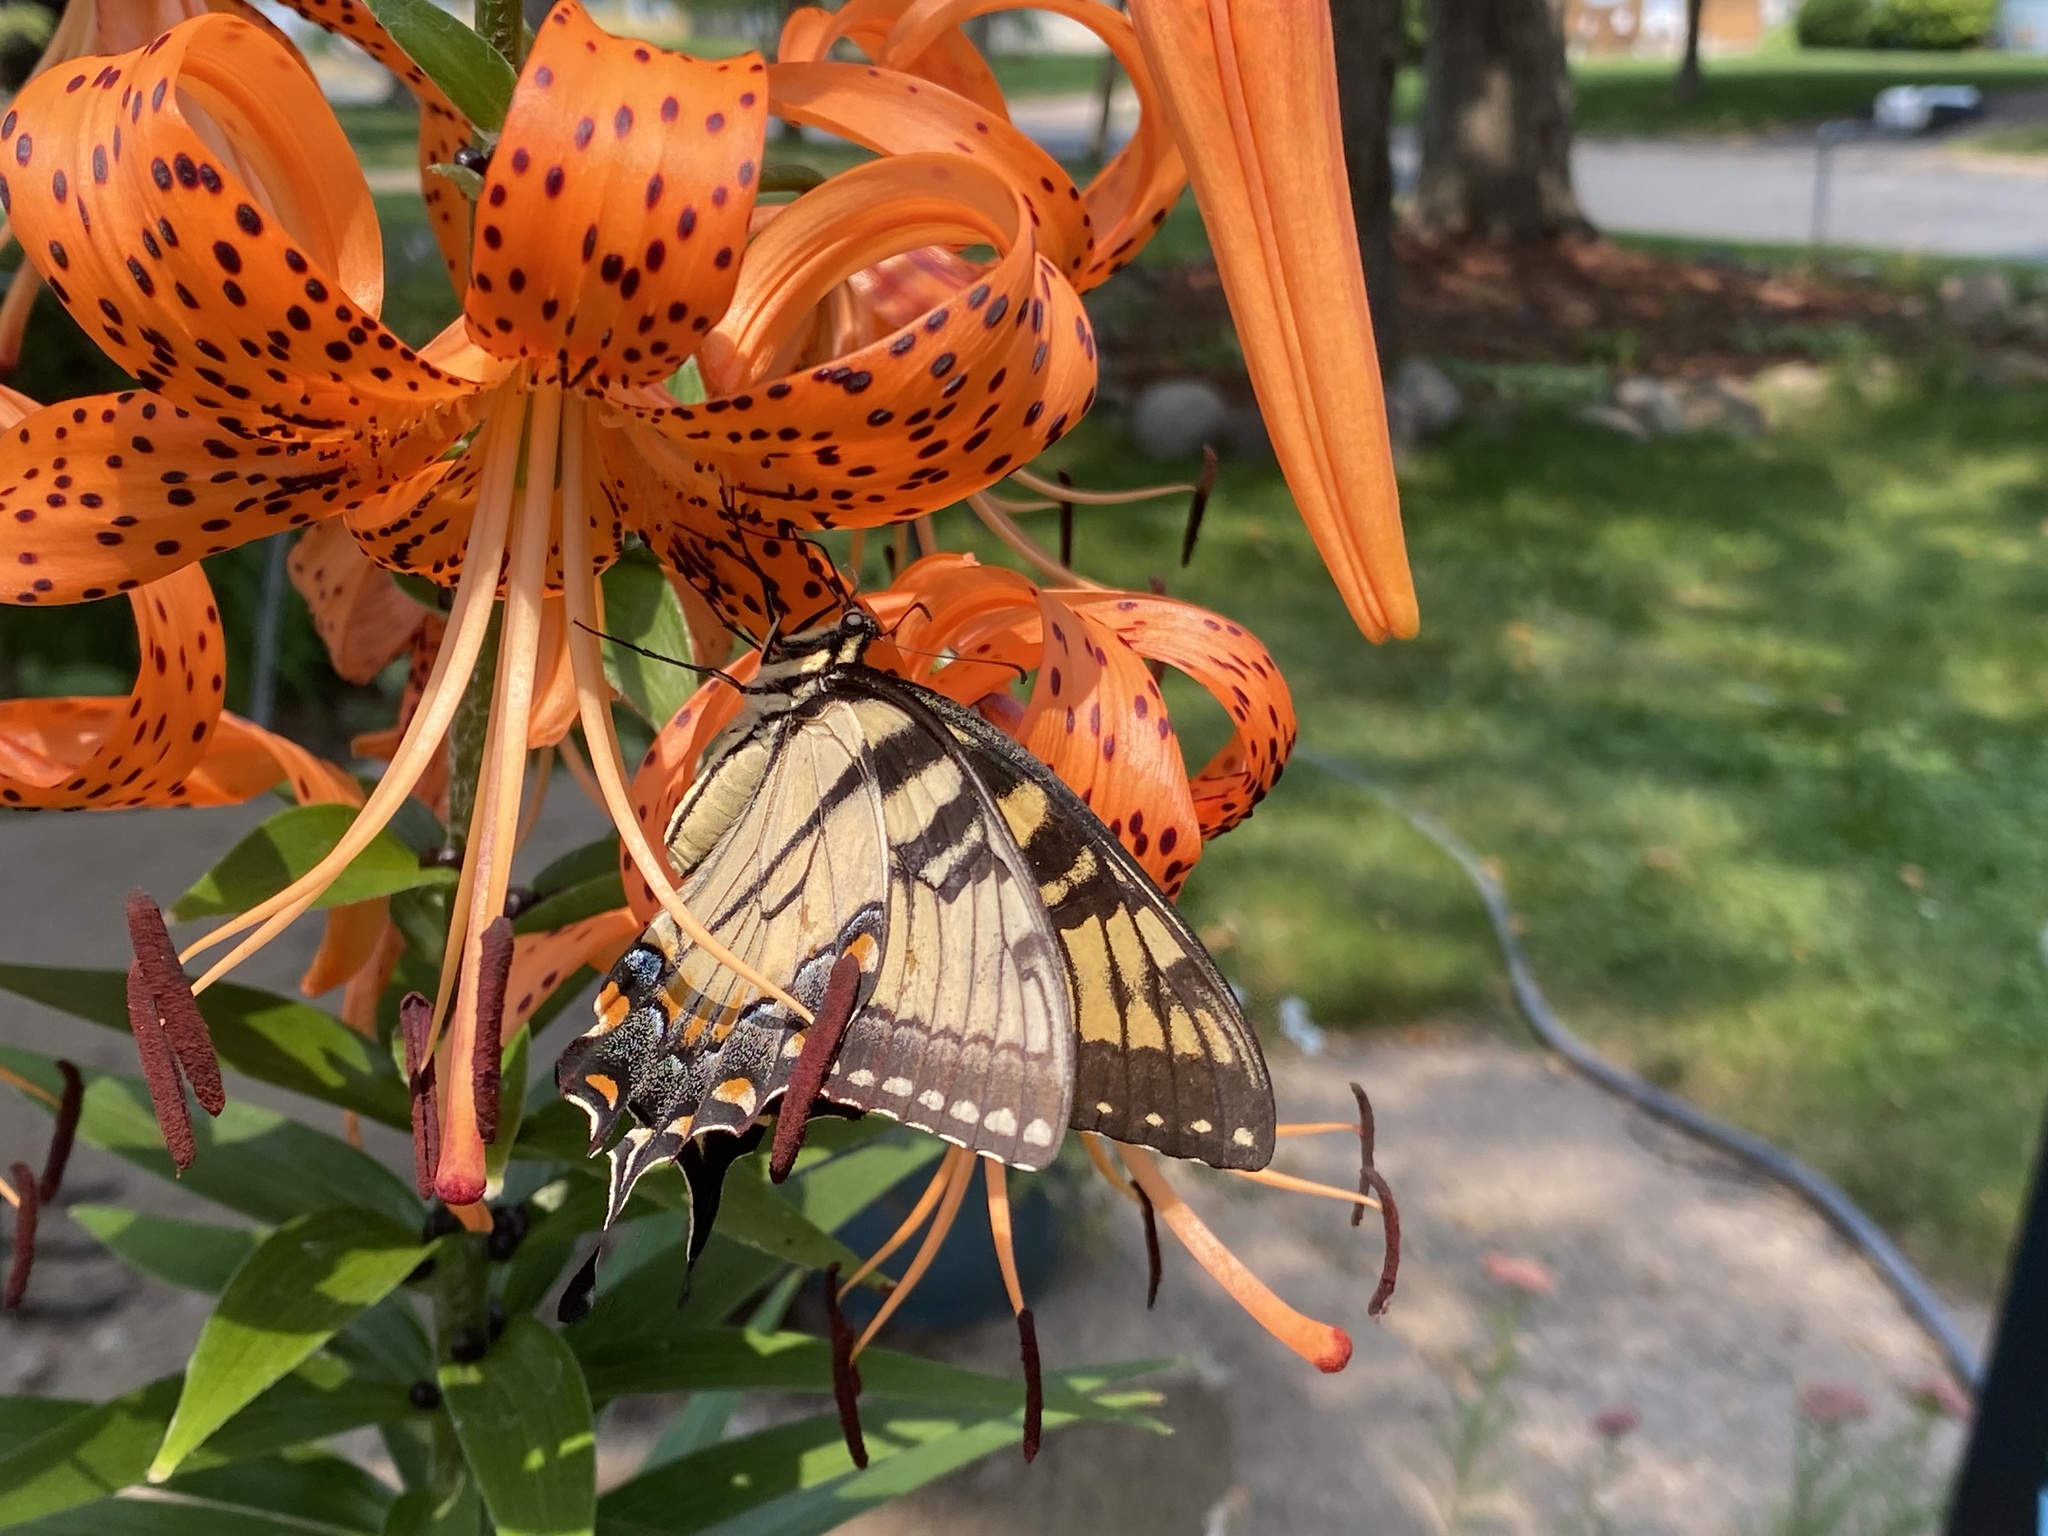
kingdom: Animalia
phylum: Arthropoda
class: Insecta
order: Lepidoptera
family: Papilionidae
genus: Papilio
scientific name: Papilio glaucus
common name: Tiger swallowtail
